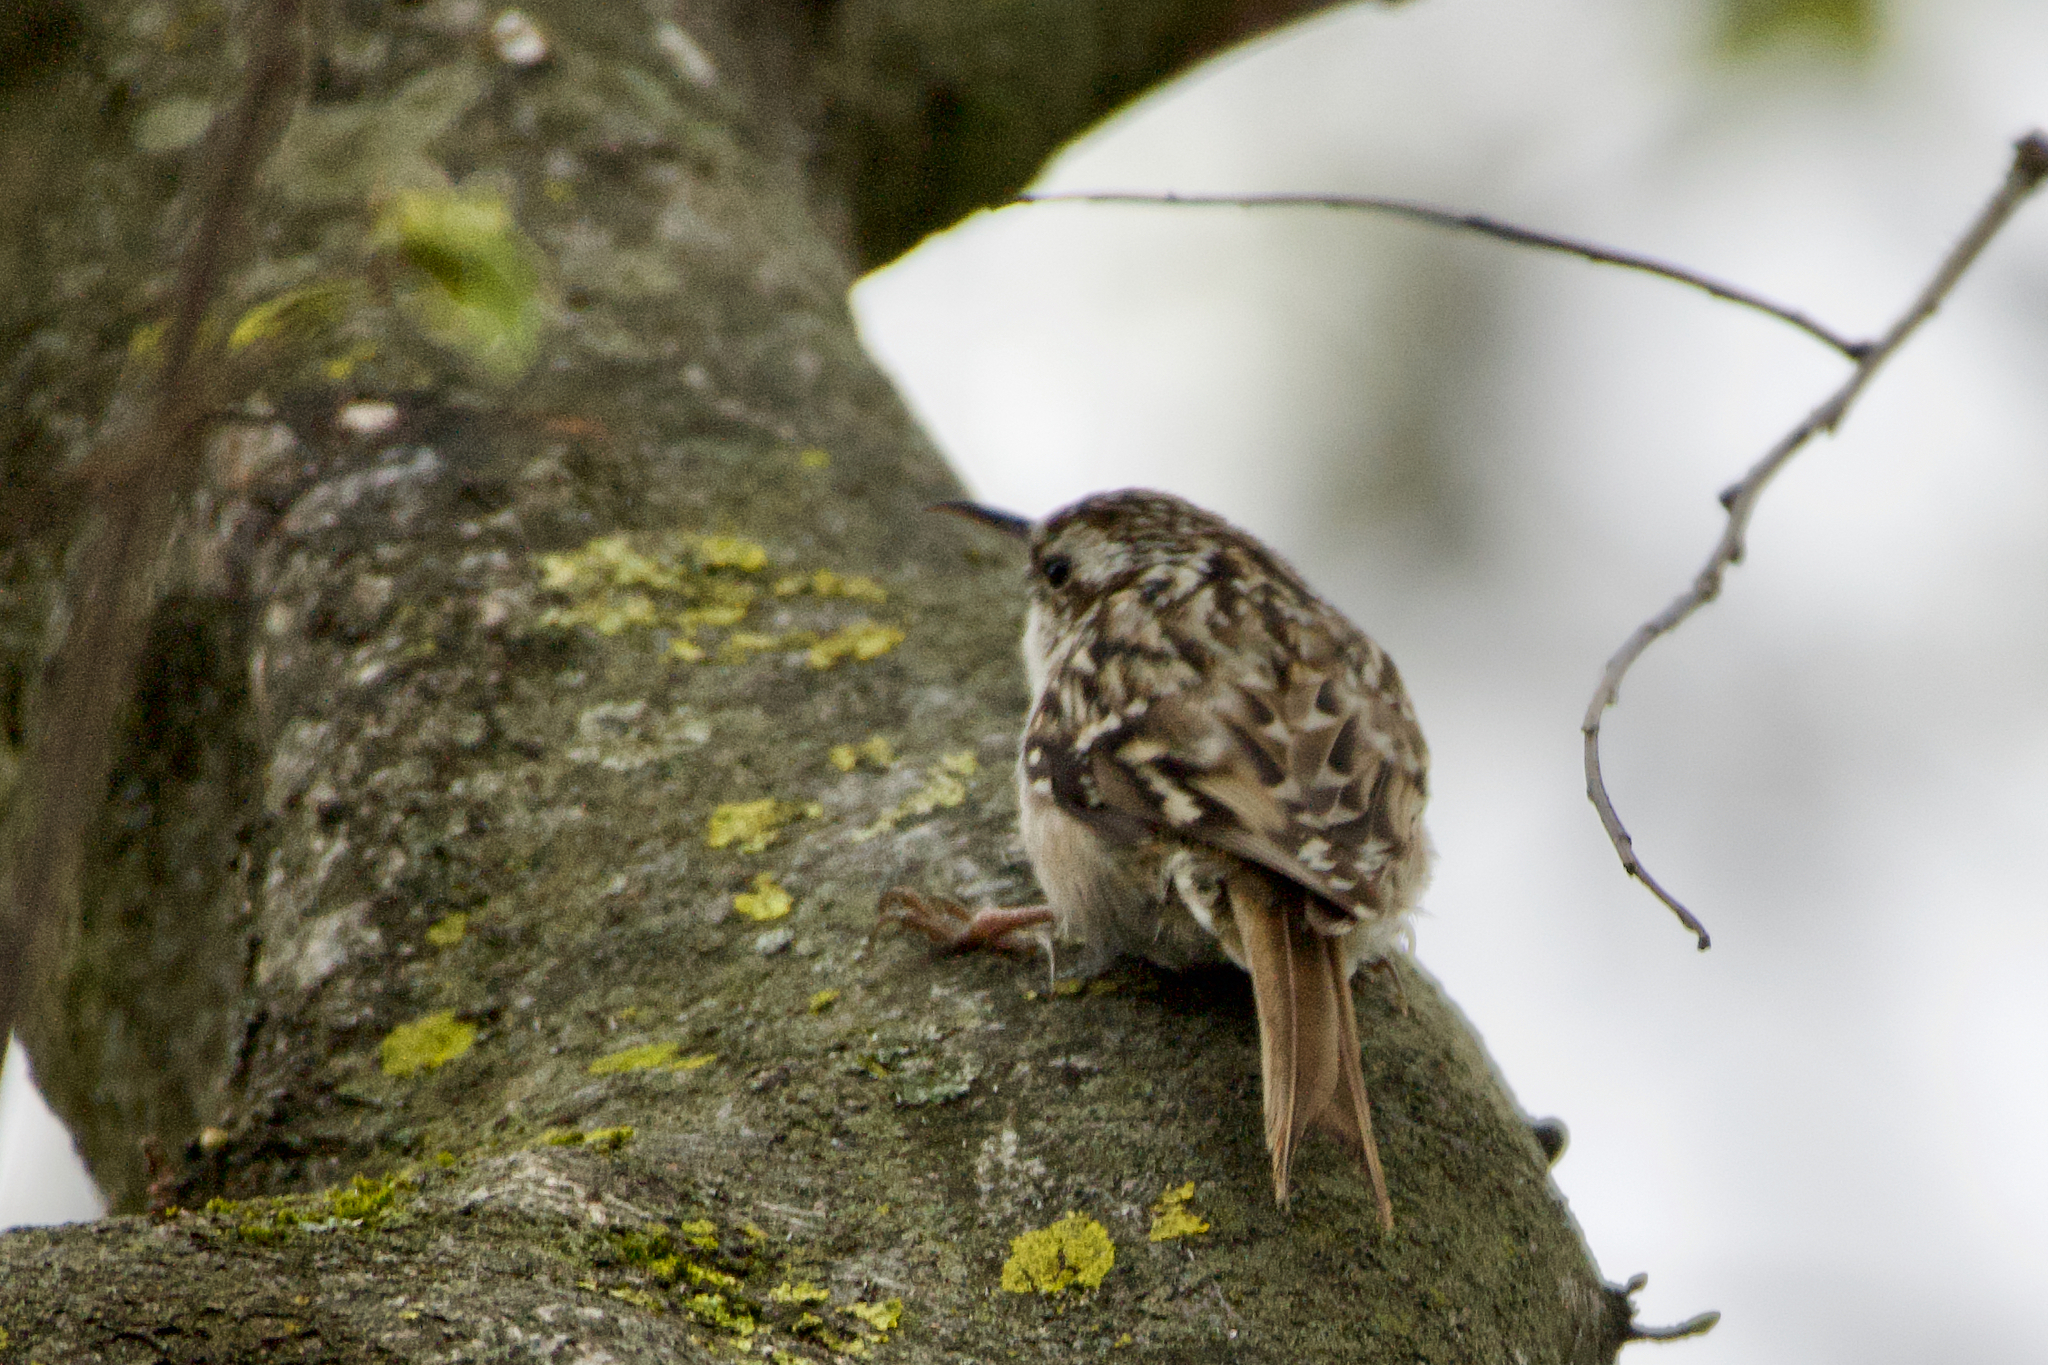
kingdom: Animalia
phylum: Chordata
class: Aves
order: Passeriformes
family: Certhiidae
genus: Certhia
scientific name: Certhia brachydactyla
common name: Short-toed treecreeper
